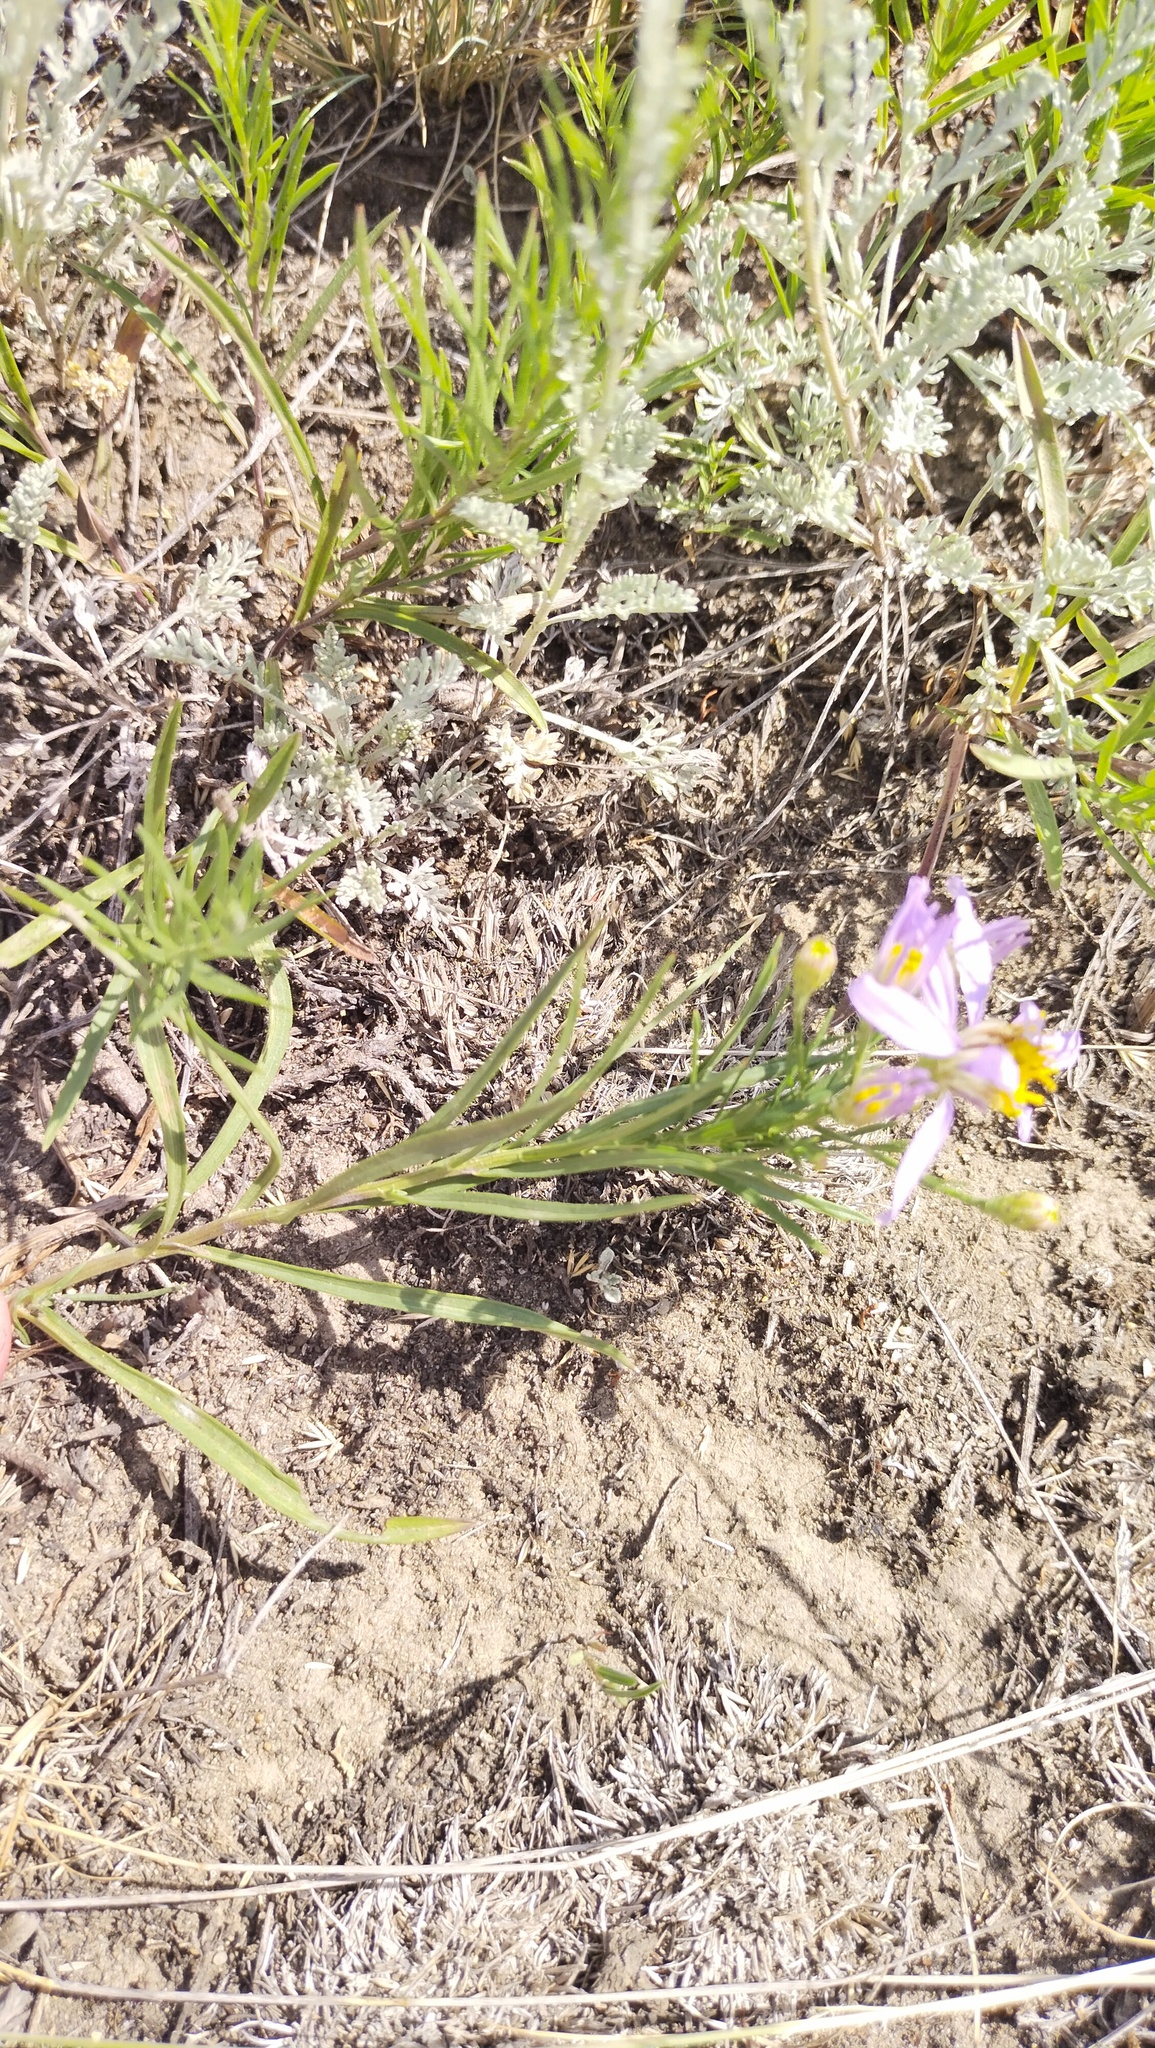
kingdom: Plantae
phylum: Tracheophyta
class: Magnoliopsida
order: Asterales
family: Asteraceae
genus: Galatella
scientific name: Galatella angustissima
